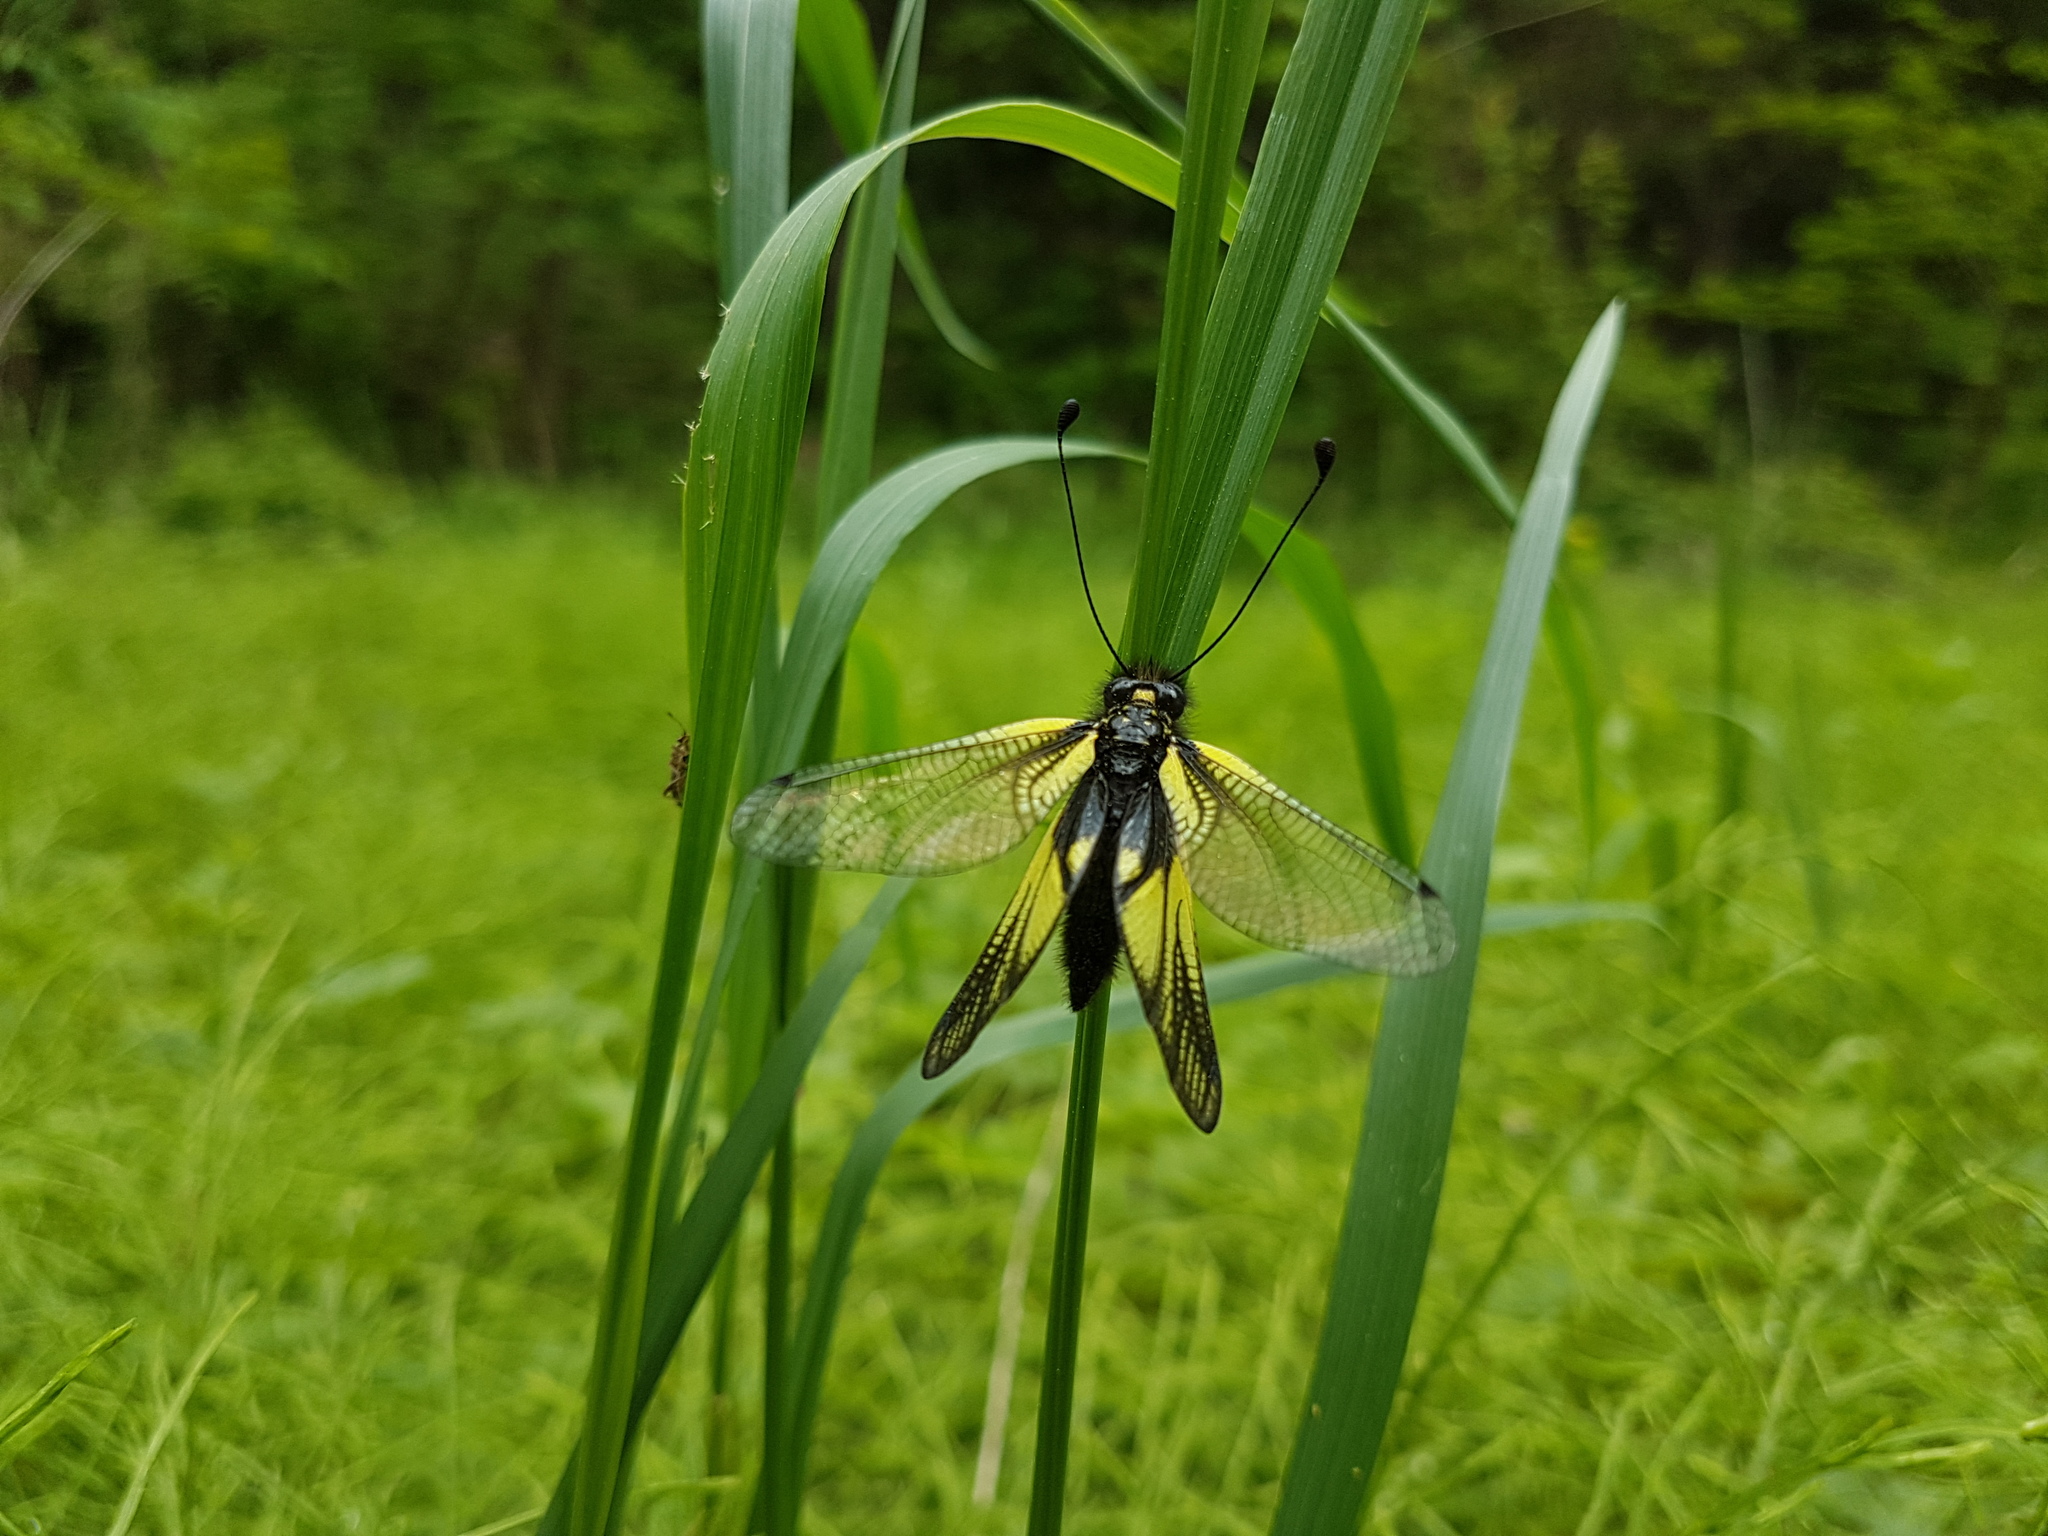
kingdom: Animalia
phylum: Arthropoda
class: Insecta
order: Neuroptera
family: Ascalaphidae
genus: Libelloides
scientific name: Libelloides sibiricus
